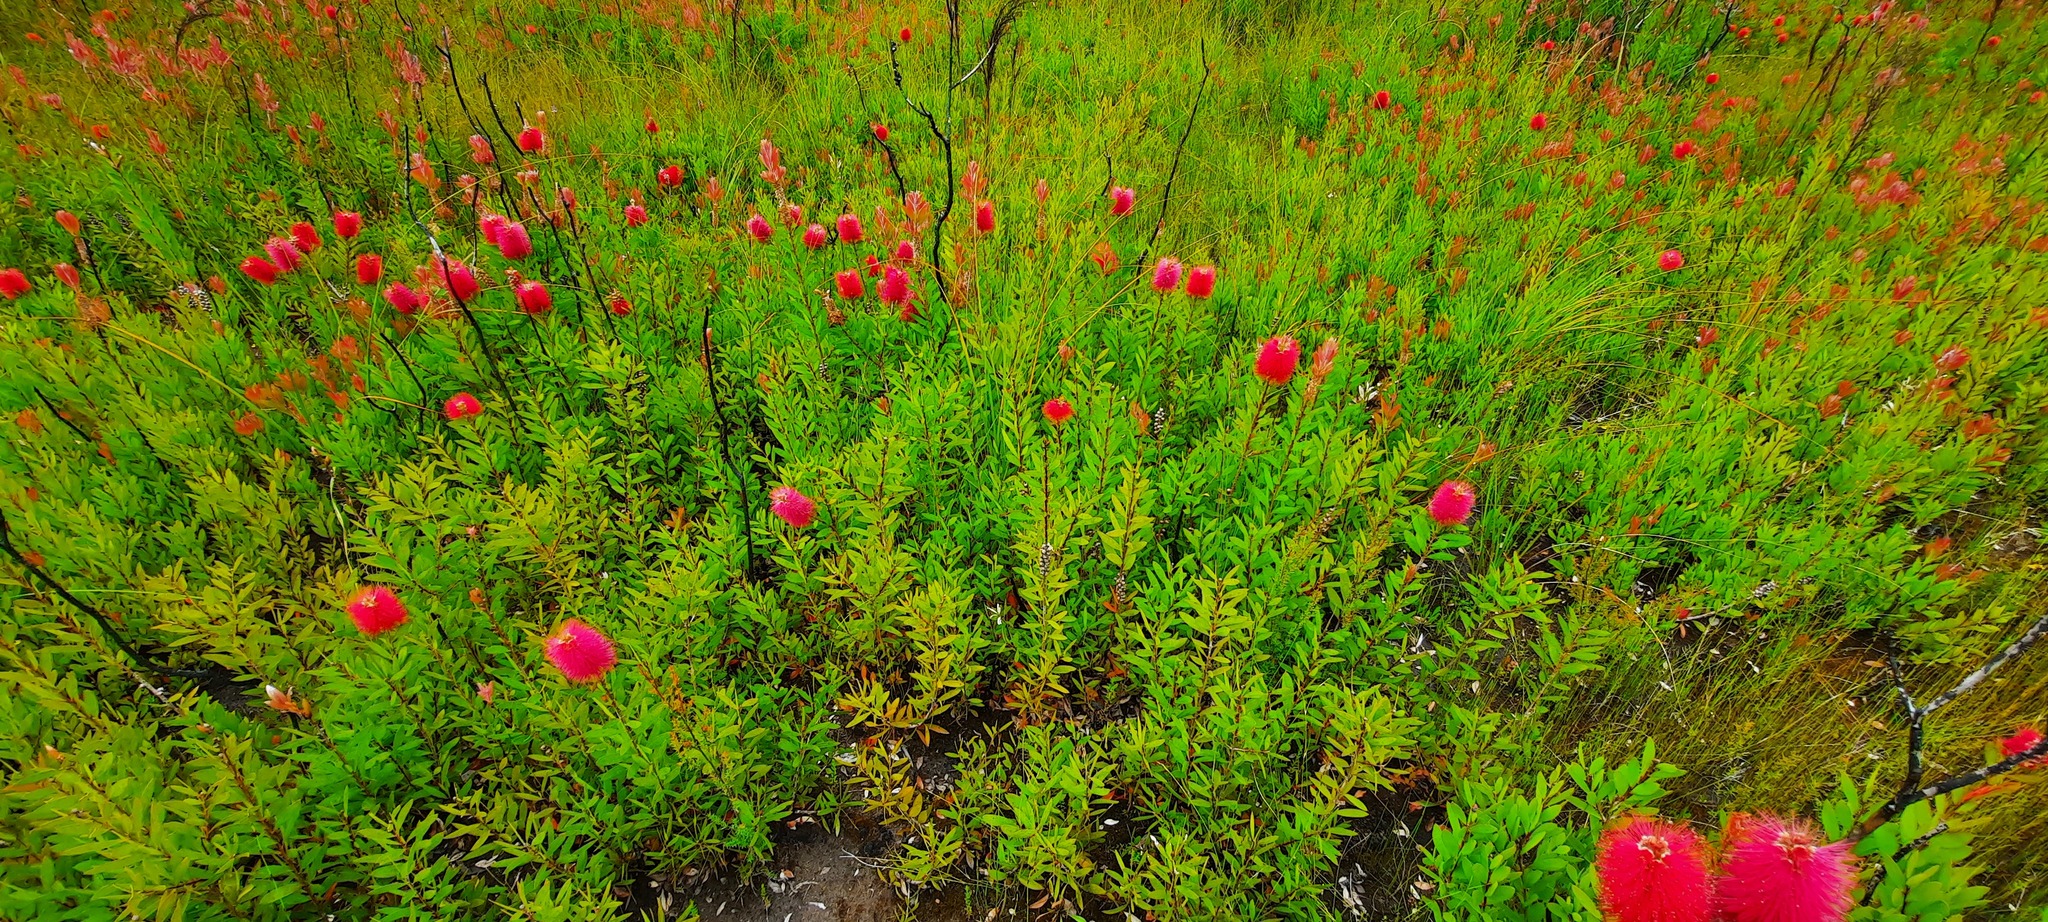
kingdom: Plantae
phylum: Tracheophyta
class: Magnoliopsida
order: Myrtales
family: Myrtaceae
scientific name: Myrtaceae
